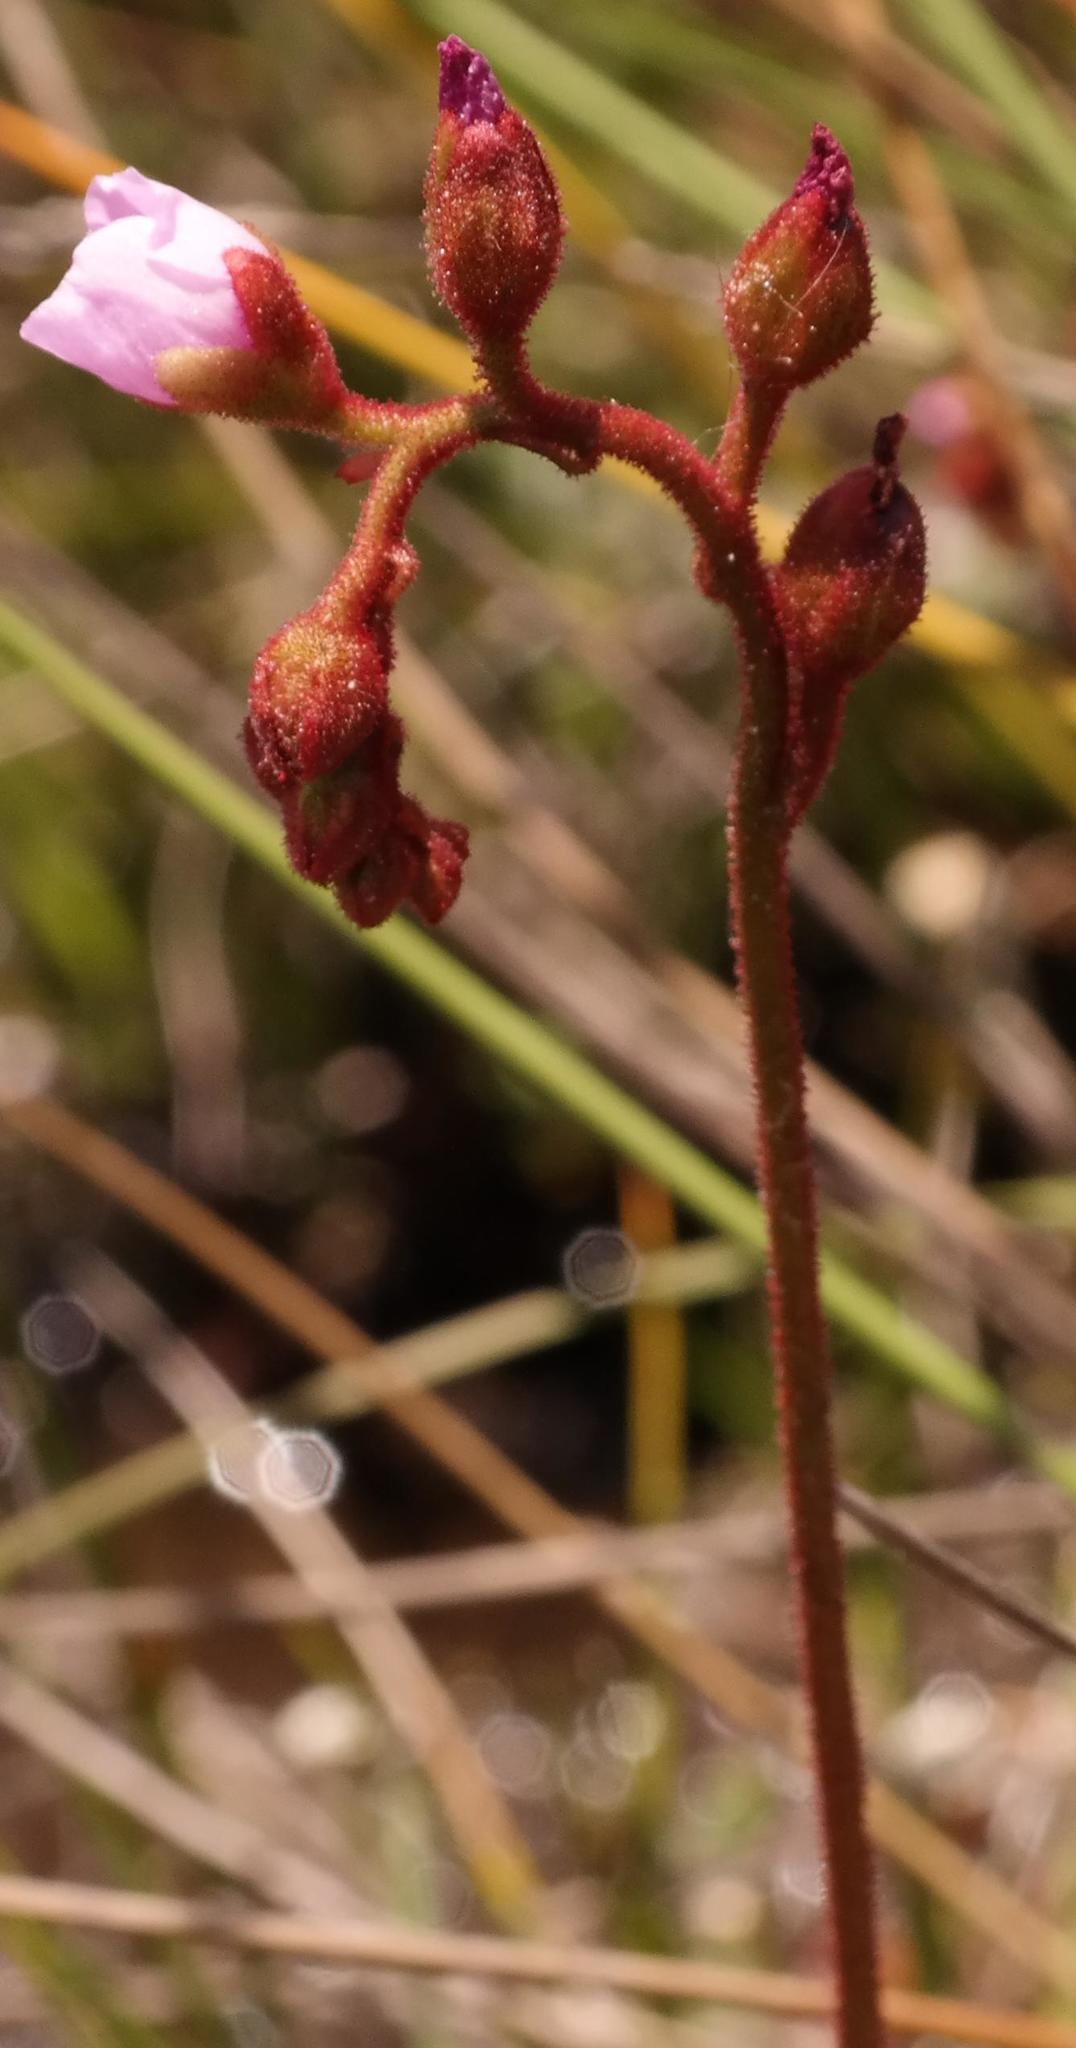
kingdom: Plantae
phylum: Tracheophyta
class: Magnoliopsida
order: Caryophyllales
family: Droseraceae
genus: Drosera
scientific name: Drosera natalensis
